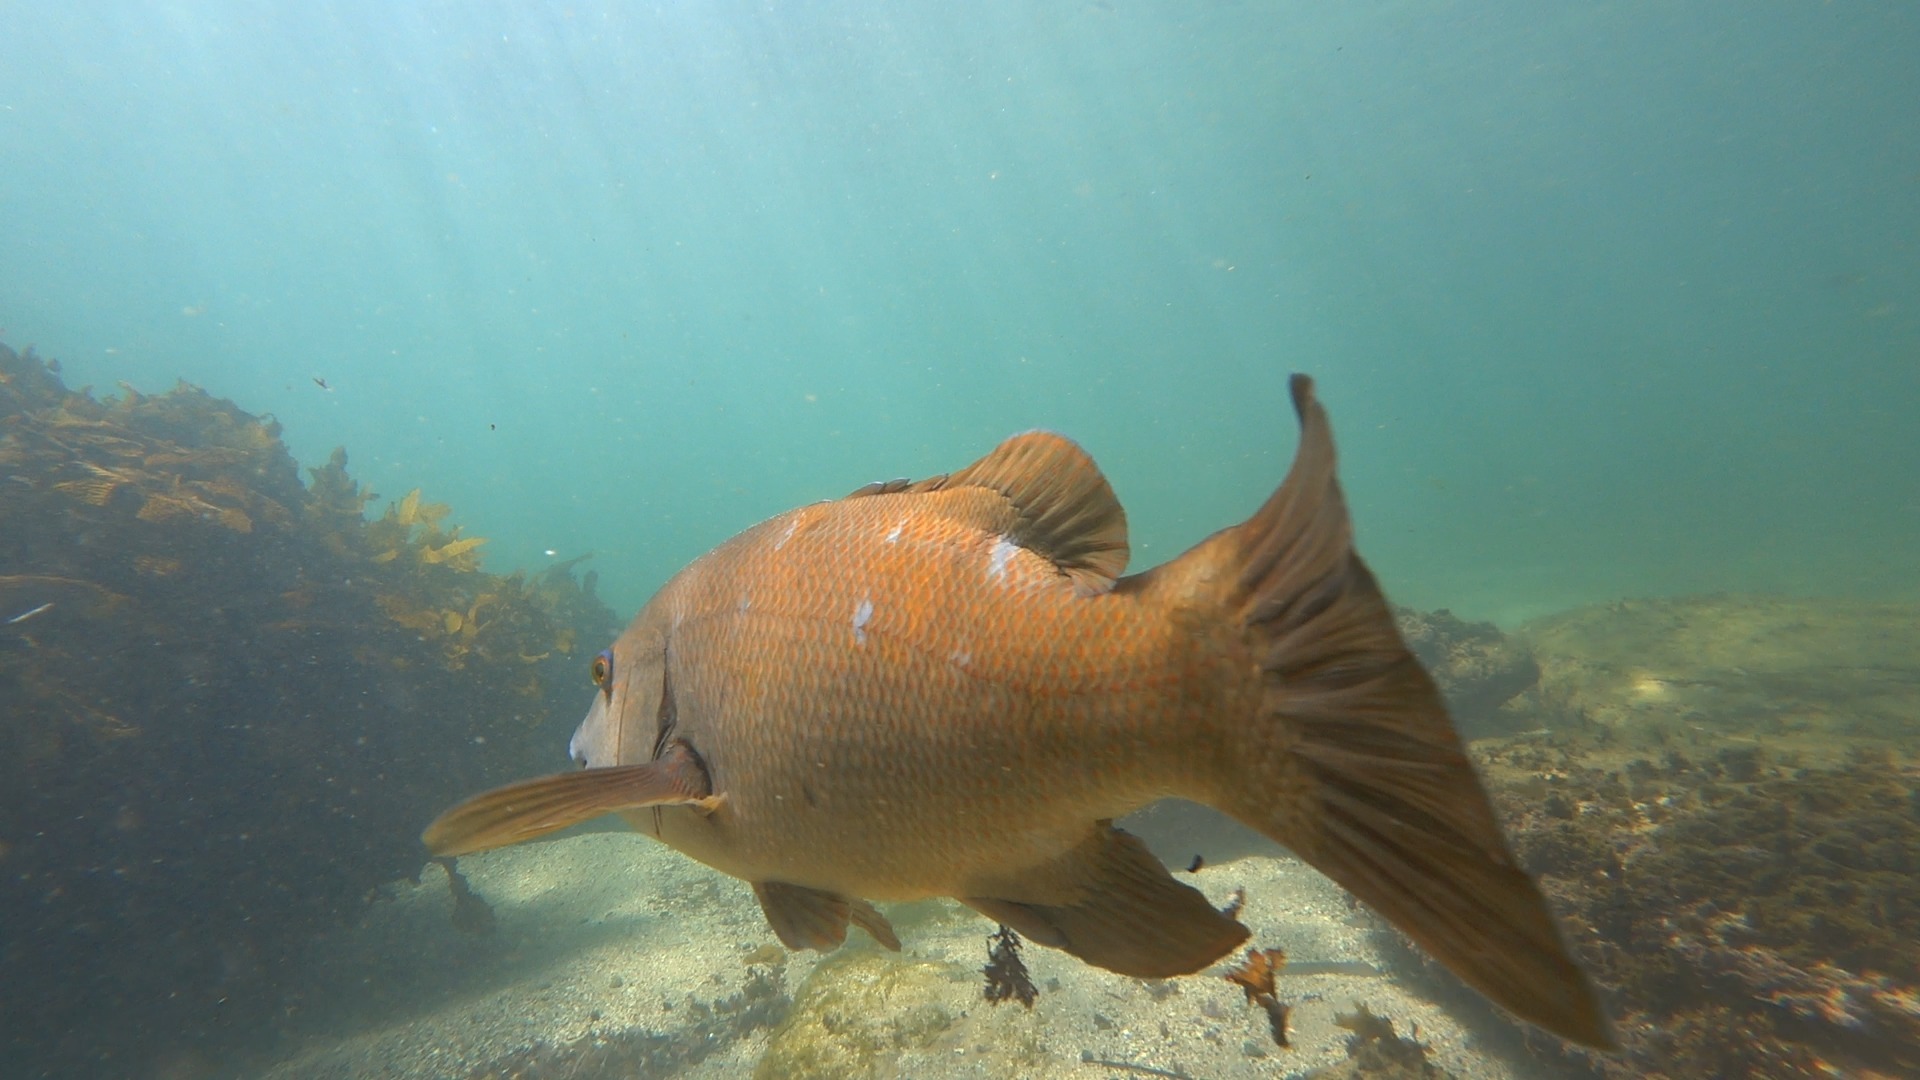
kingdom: Animalia
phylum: Chordata
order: Perciformes
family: Labridae
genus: Achoerodus
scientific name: Achoerodus viridis
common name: Brown groper
